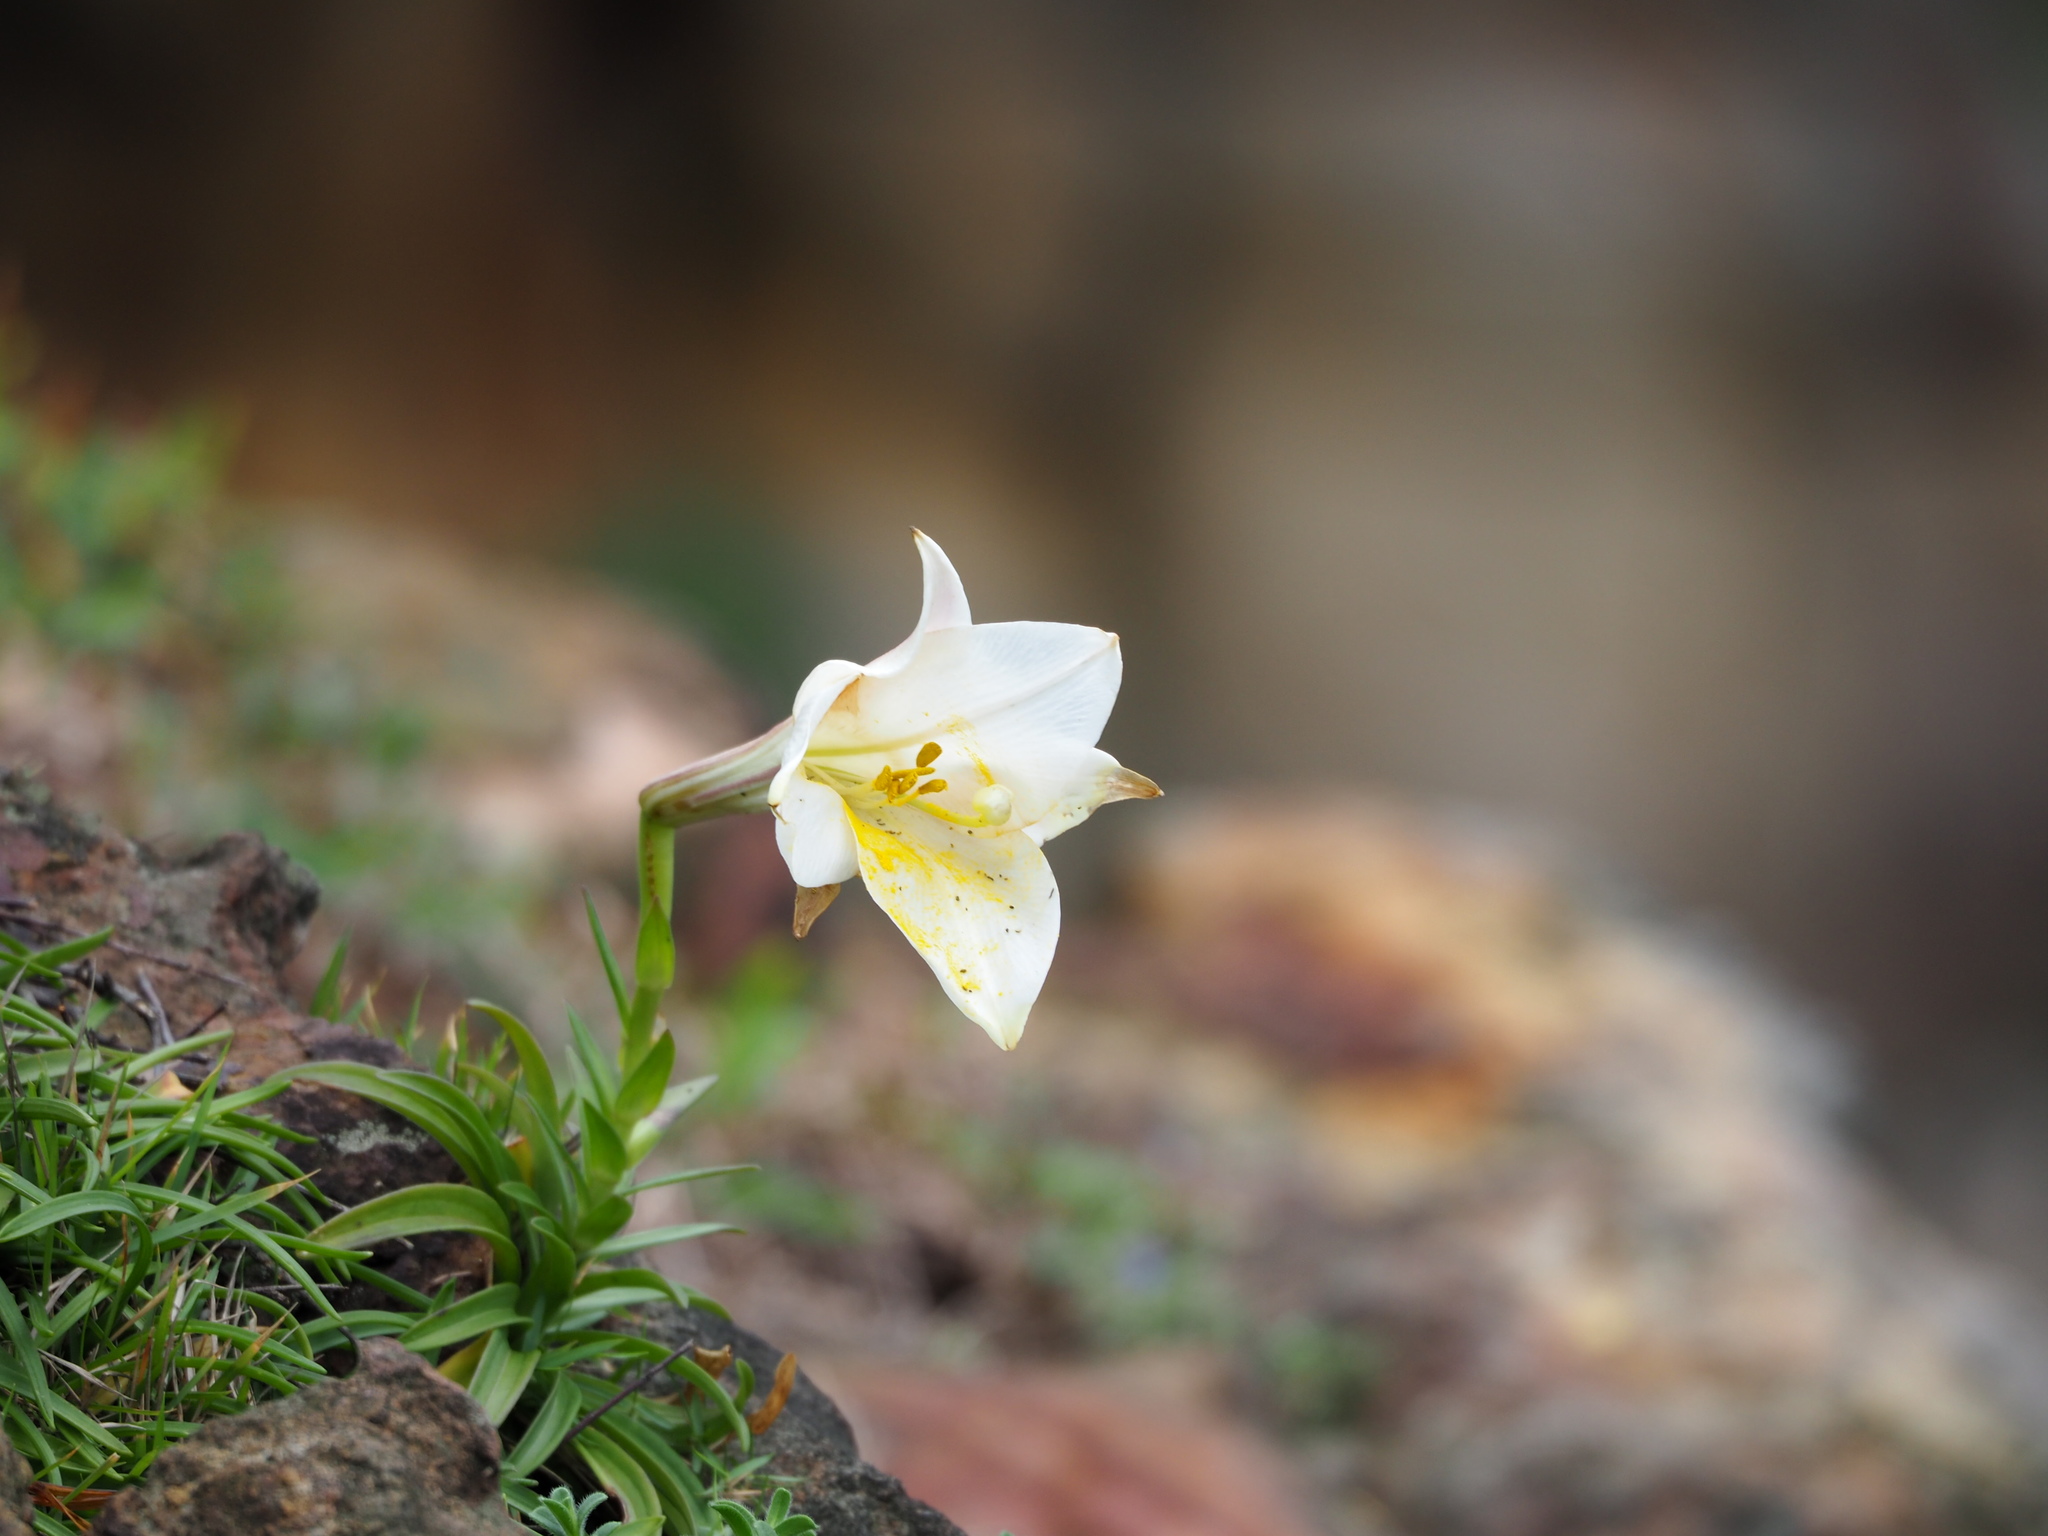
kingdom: Plantae
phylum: Tracheophyta
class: Liliopsida
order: Liliales
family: Liliaceae
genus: Lilium
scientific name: Lilium longiflorum
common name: Easter lily
